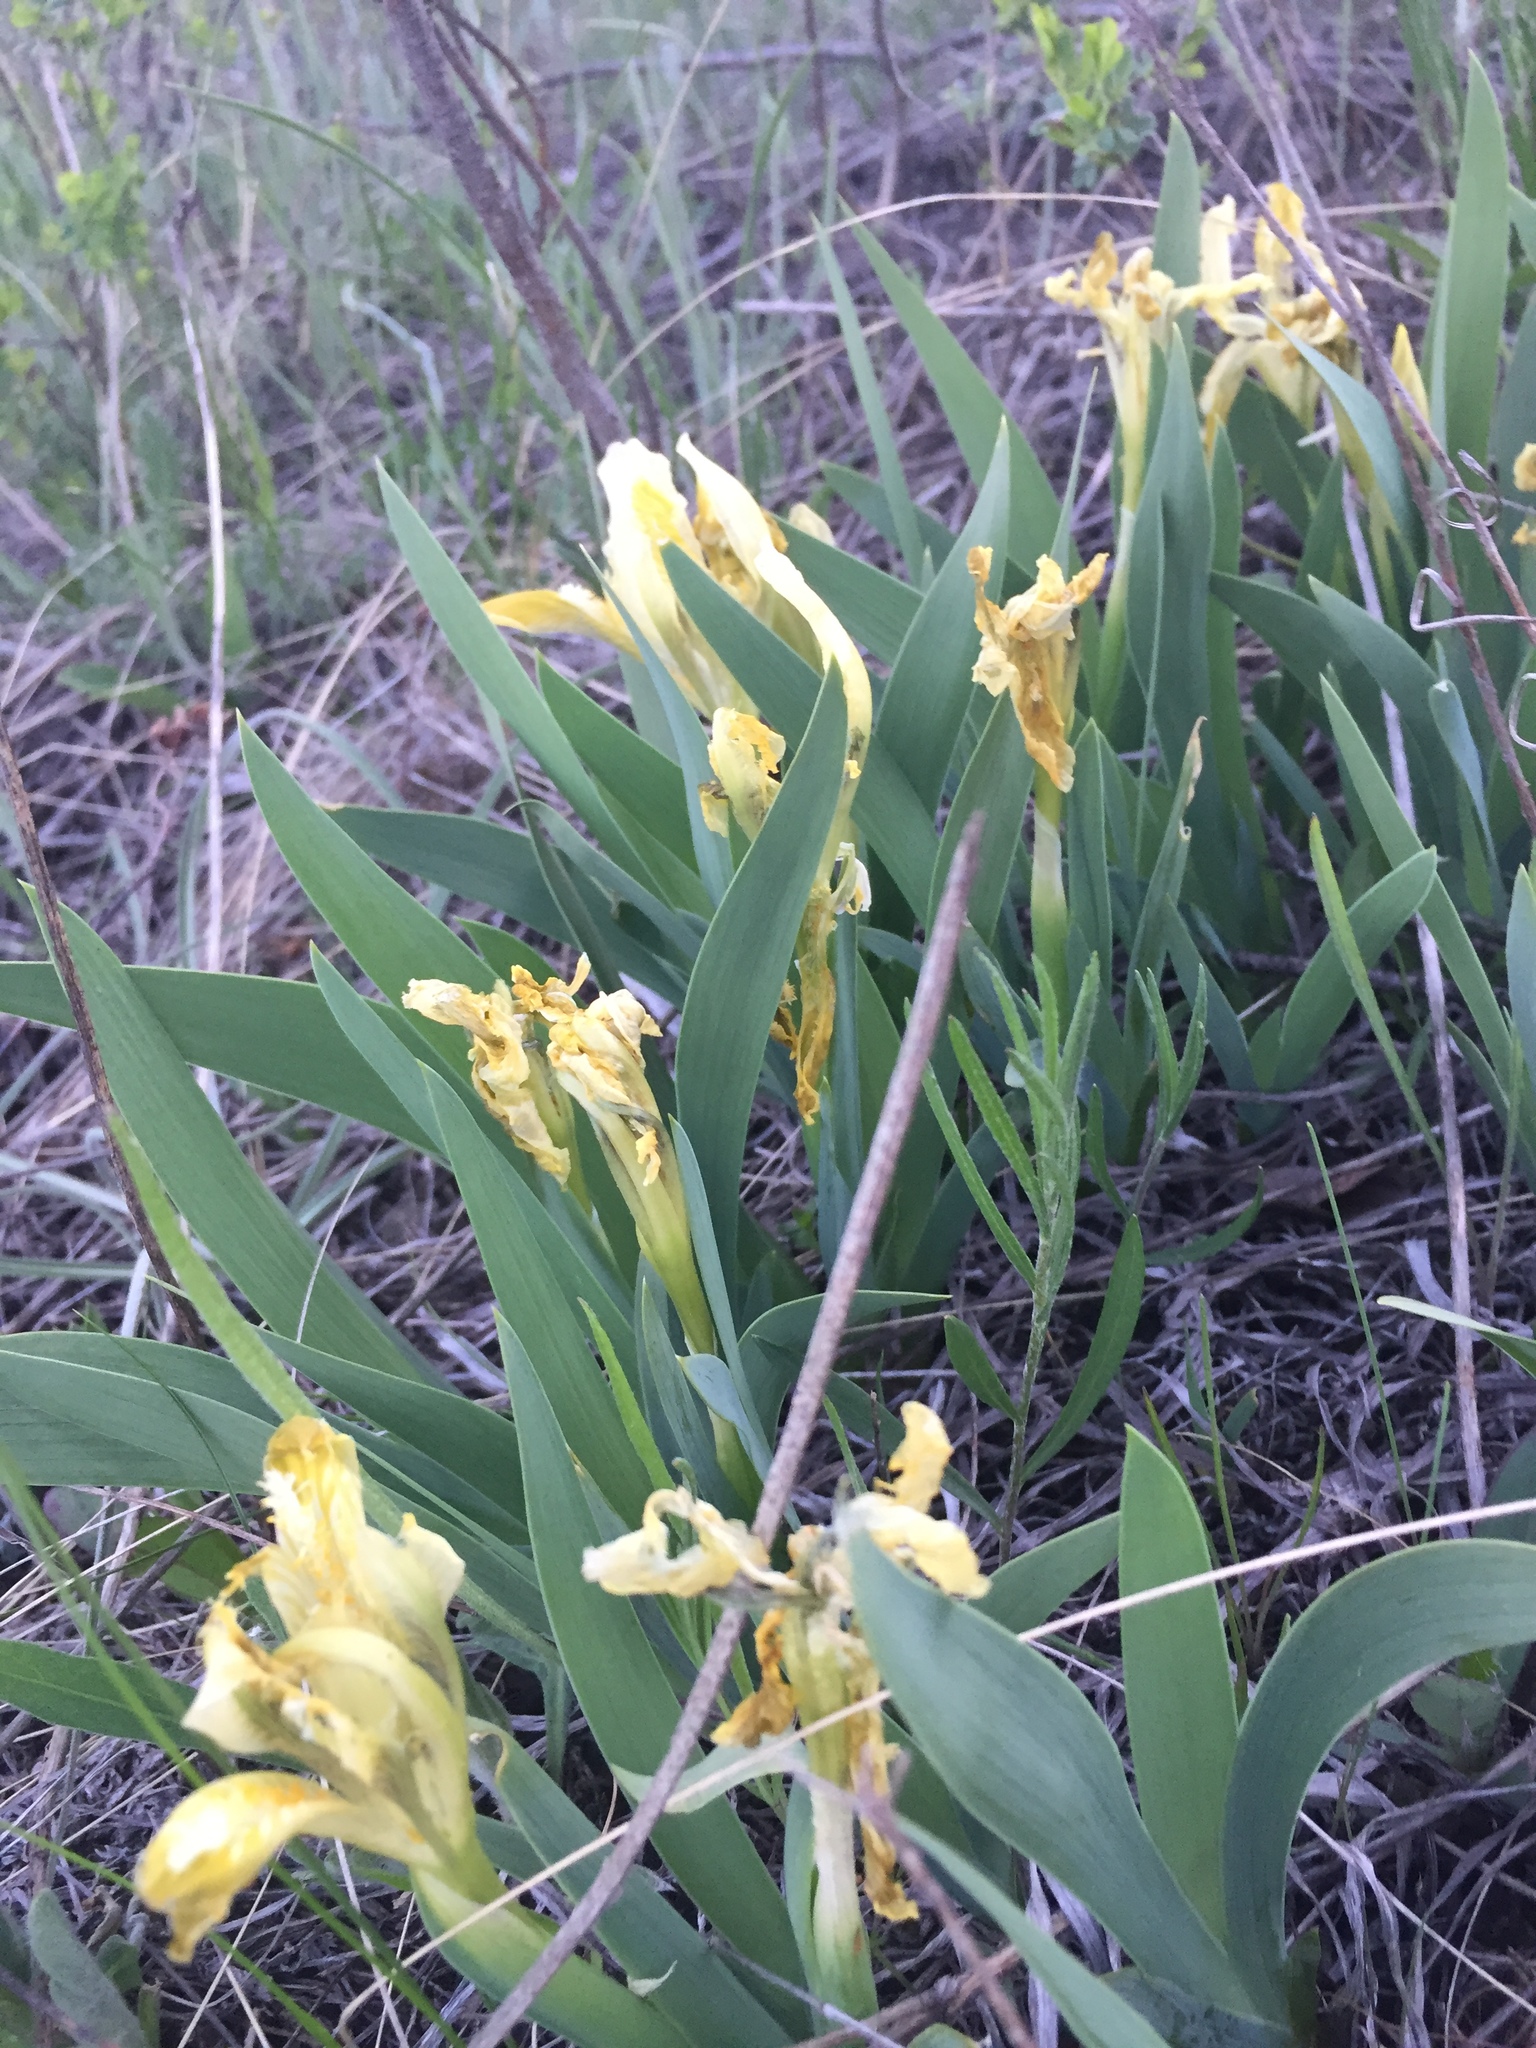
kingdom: Plantae
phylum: Tracheophyta
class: Liliopsida
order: Asparagales
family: Iridaceae
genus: Iris
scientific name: Iris pumila
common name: Dwarf iris
